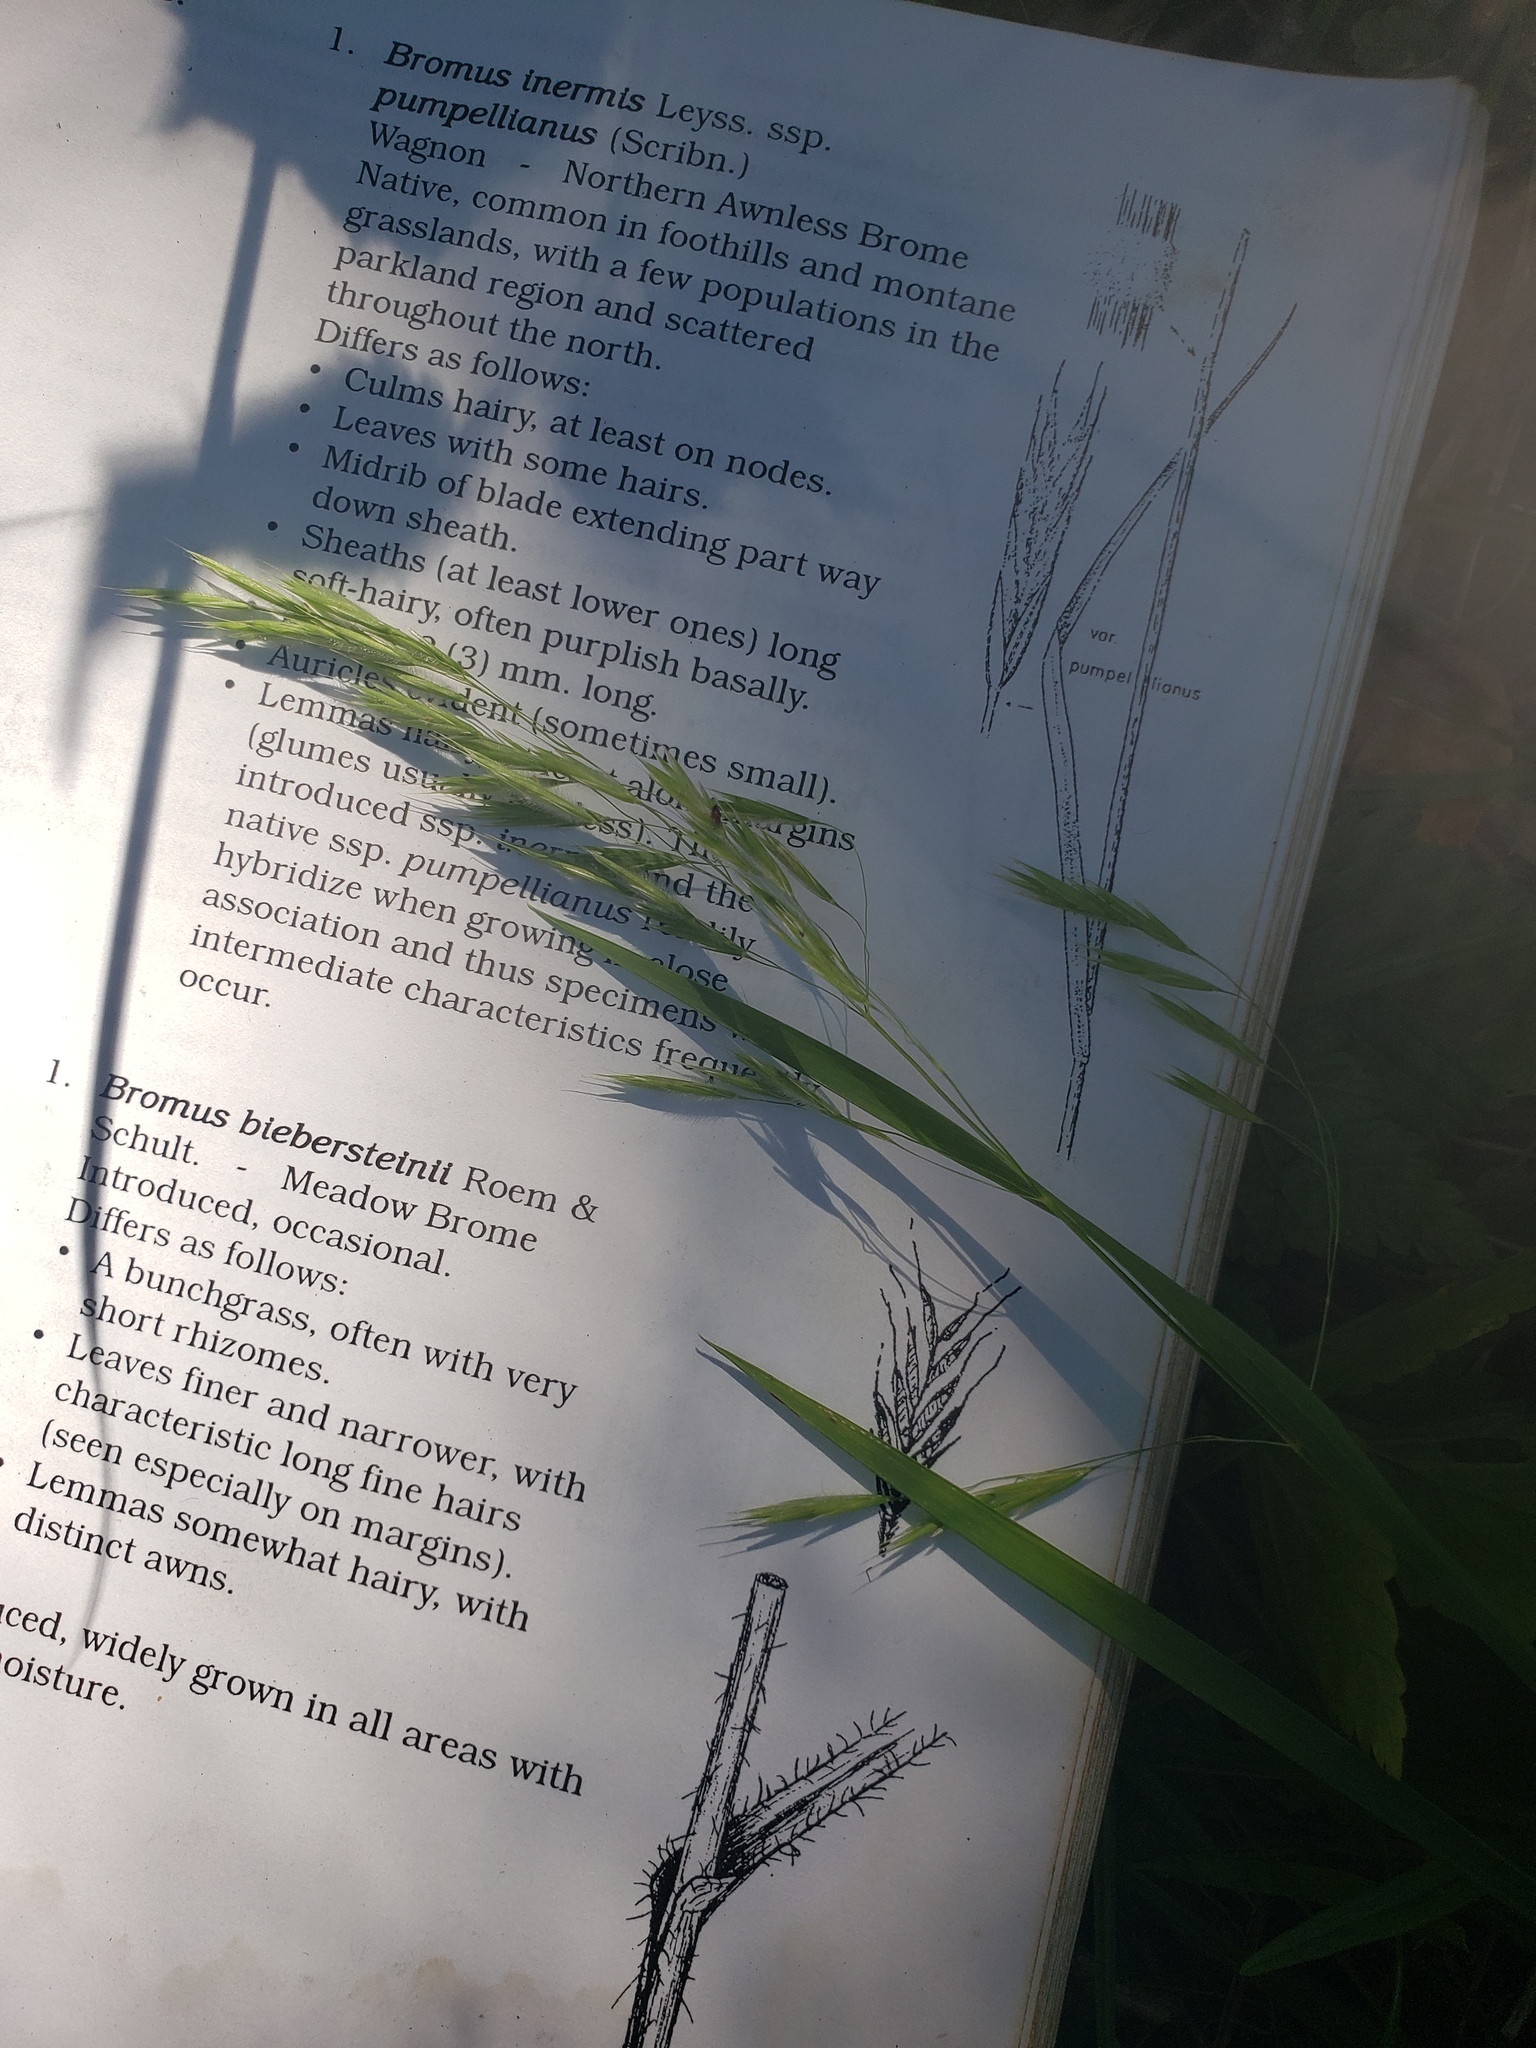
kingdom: Plantae
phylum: Tracheophyta
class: Liliopsida
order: Poales
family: Poaceae
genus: Bromus
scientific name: Bromus ciliatus
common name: Fringe brome
